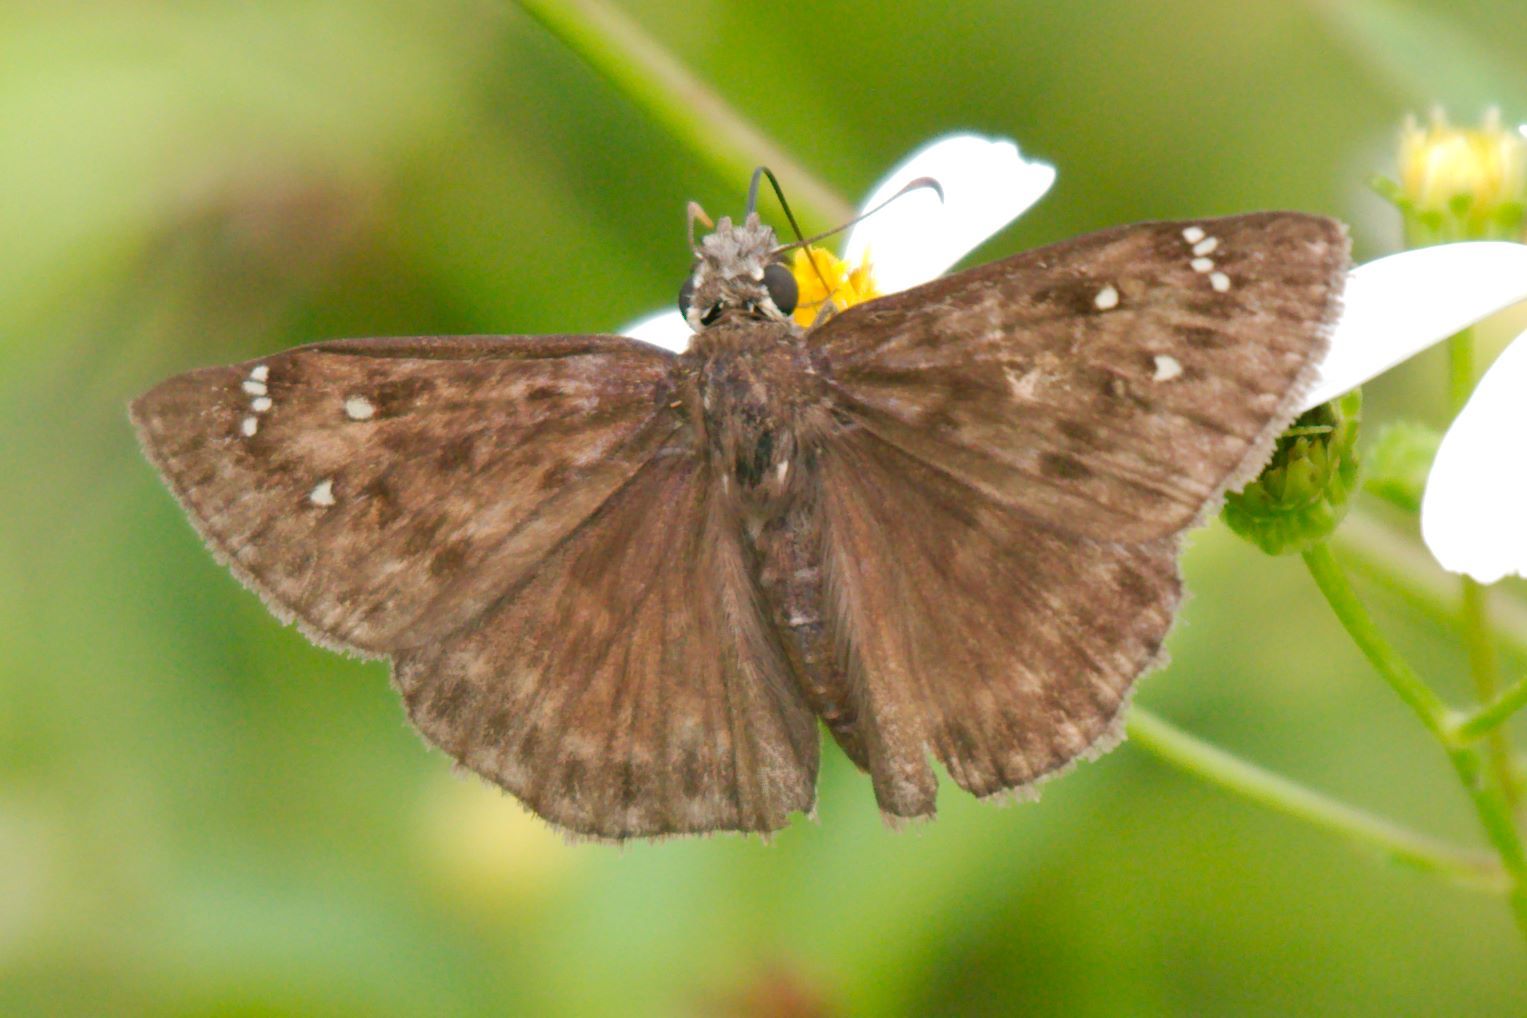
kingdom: Animalia
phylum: Arthropoda
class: Insecta
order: Lepidoptera
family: Hesperiidae
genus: Erynnis
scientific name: Erynnis horatius
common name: Horace's duskywing
